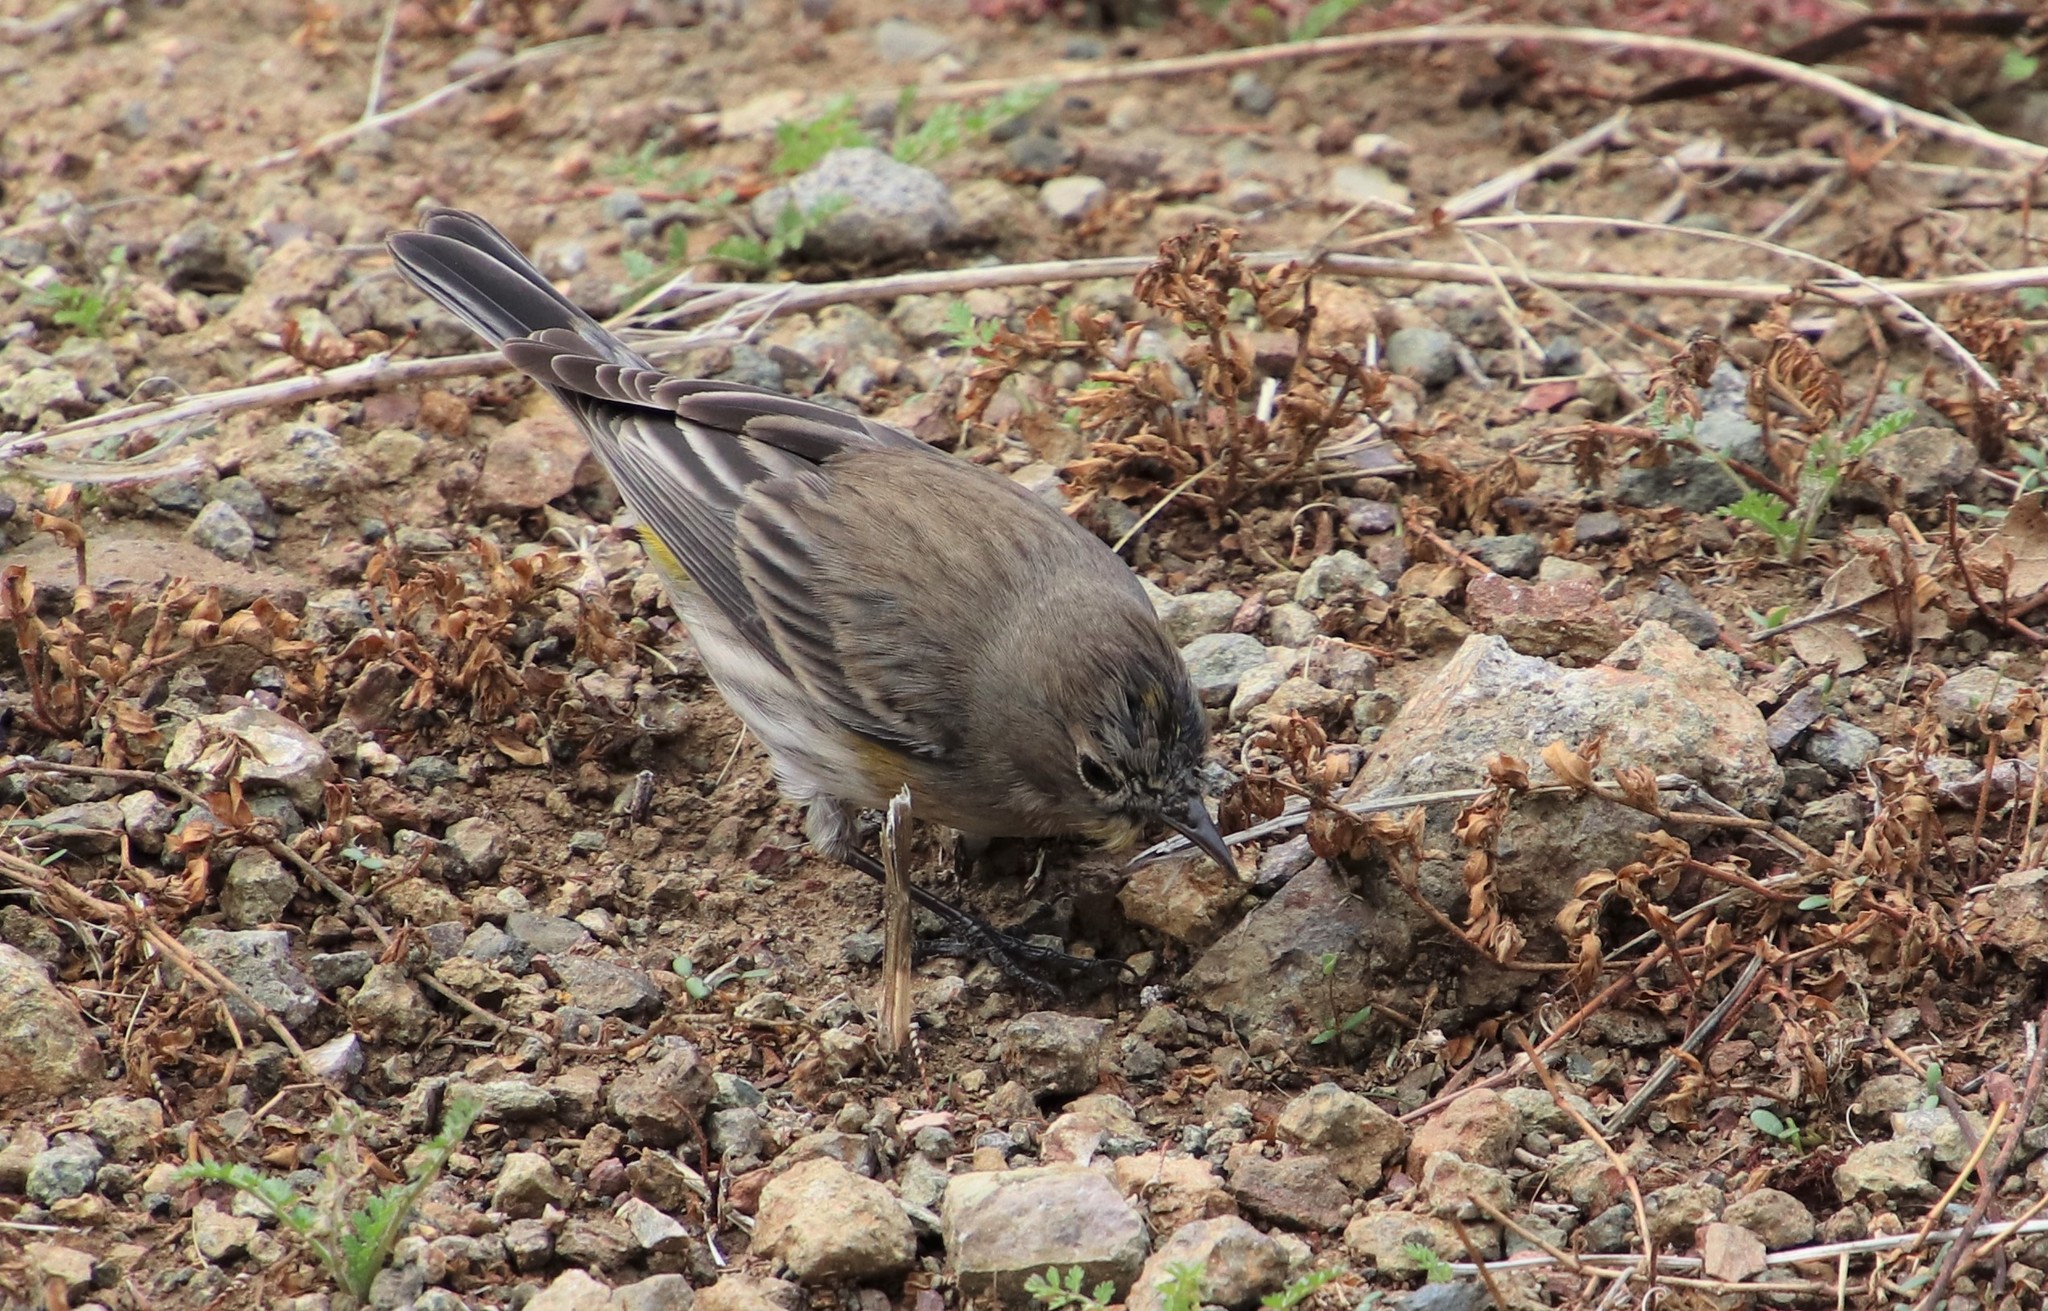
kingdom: Animalia
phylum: Chordata
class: Aves
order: Passeriformes
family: Parulidae
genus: Setophaga
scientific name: Setophaga auduboni
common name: Audubon's warbler
